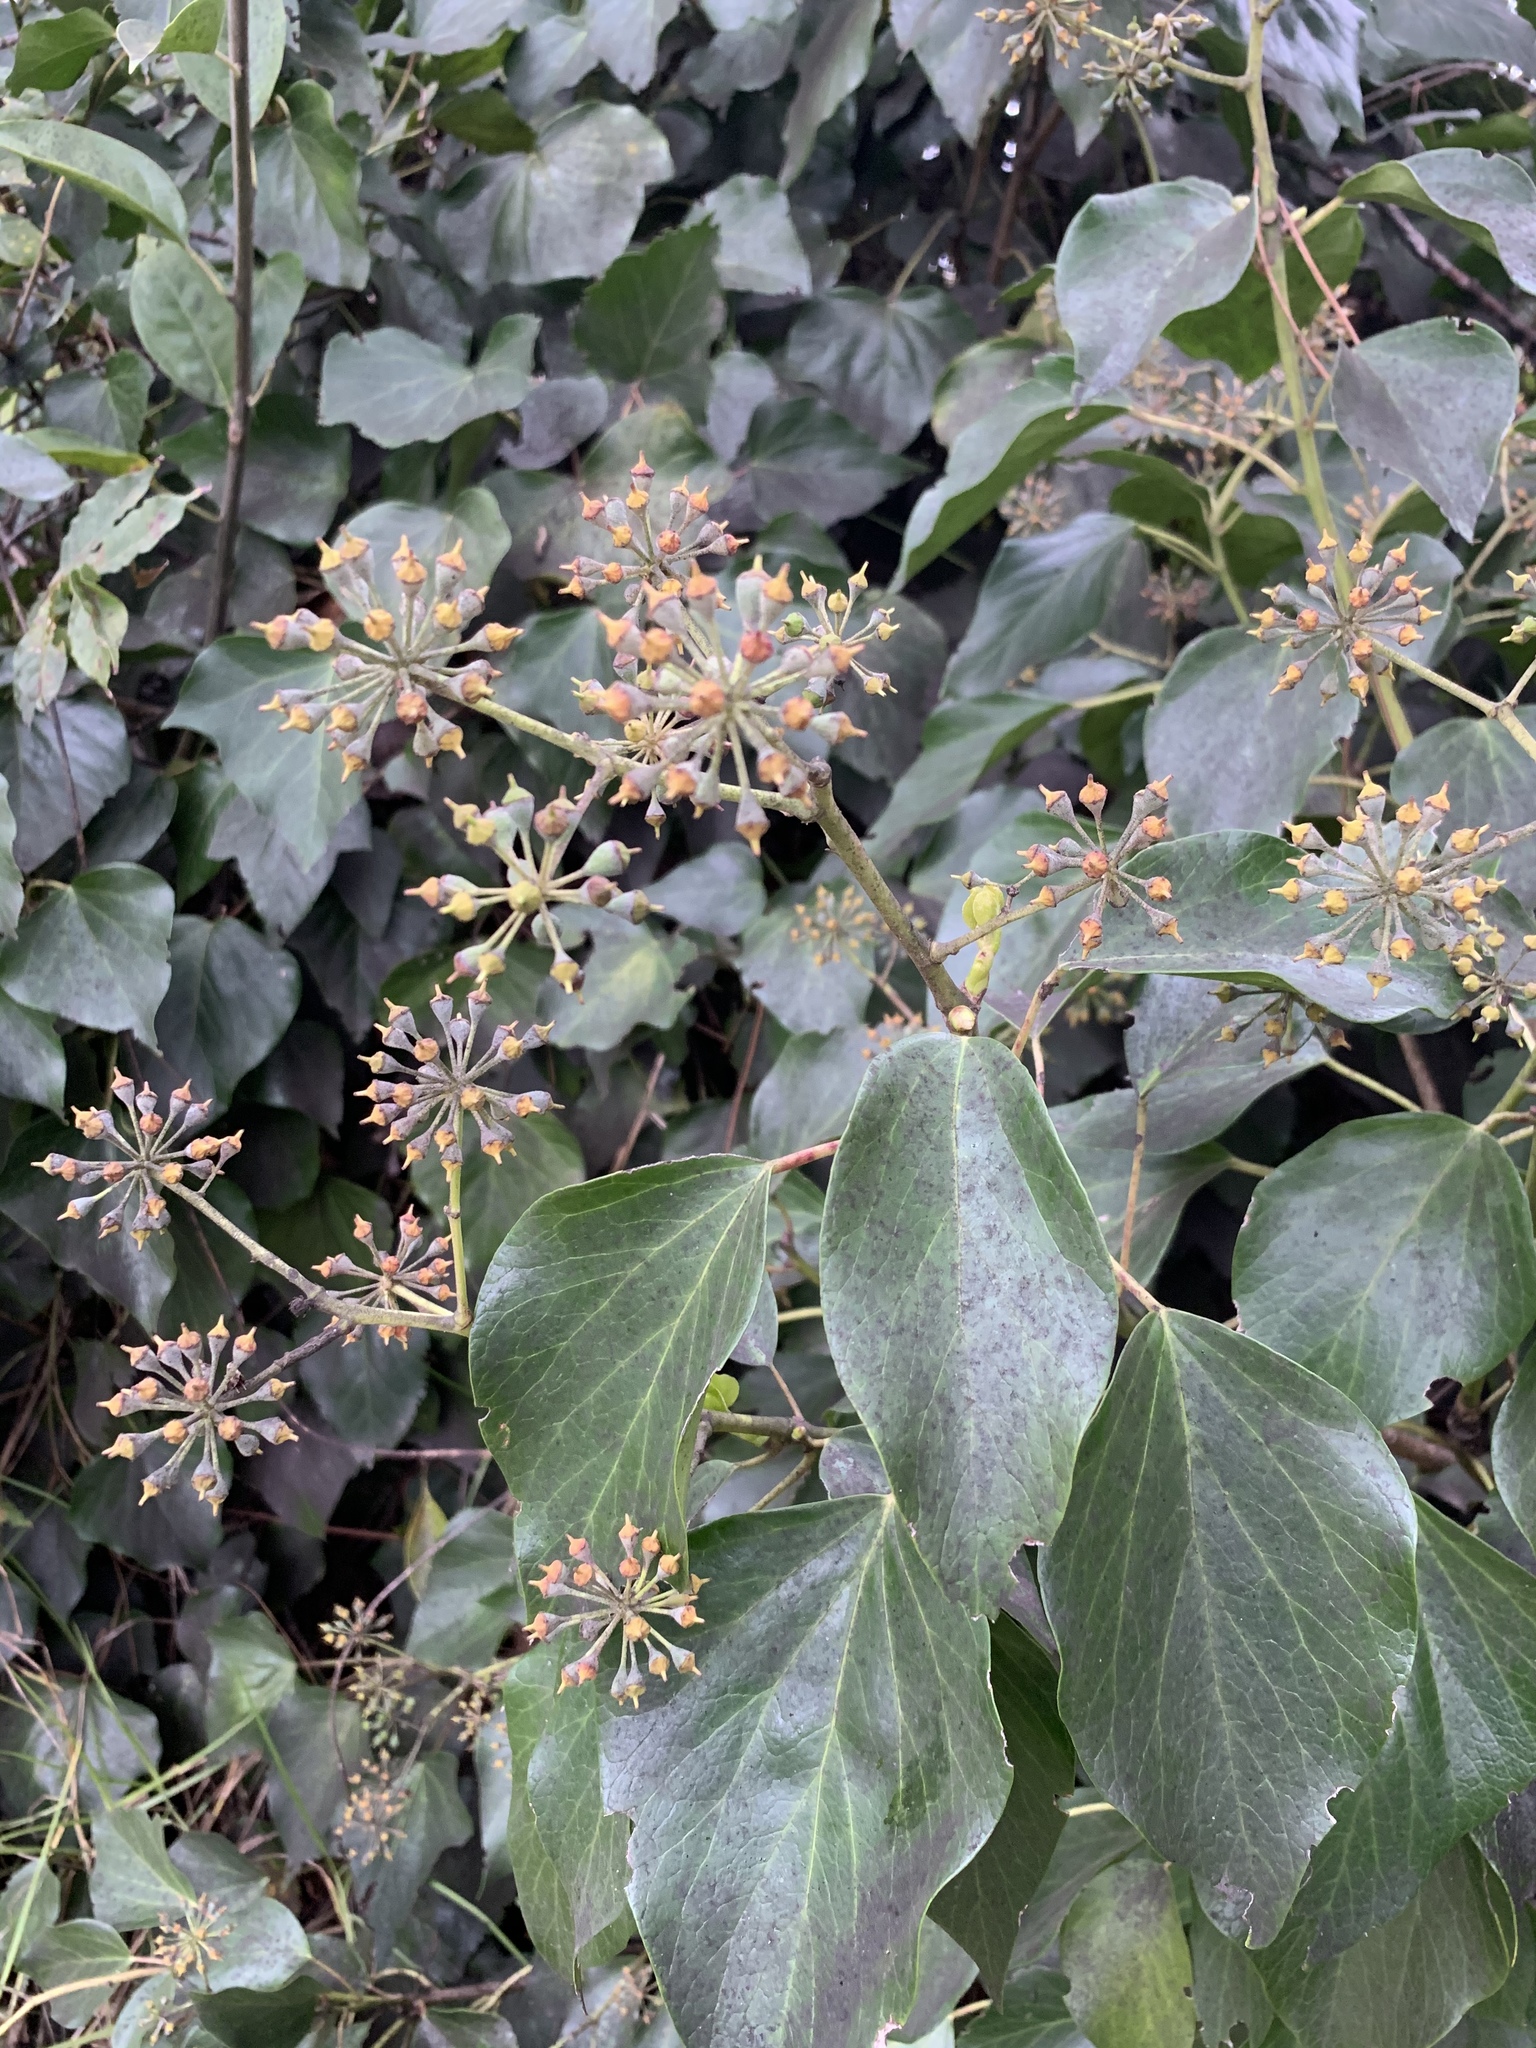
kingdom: Plantae
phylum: Tracheophyta
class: Magnoliopsida
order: Apiales
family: Araliaceae
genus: Hedera
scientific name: Hedera canariensis
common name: Madeira ivy
